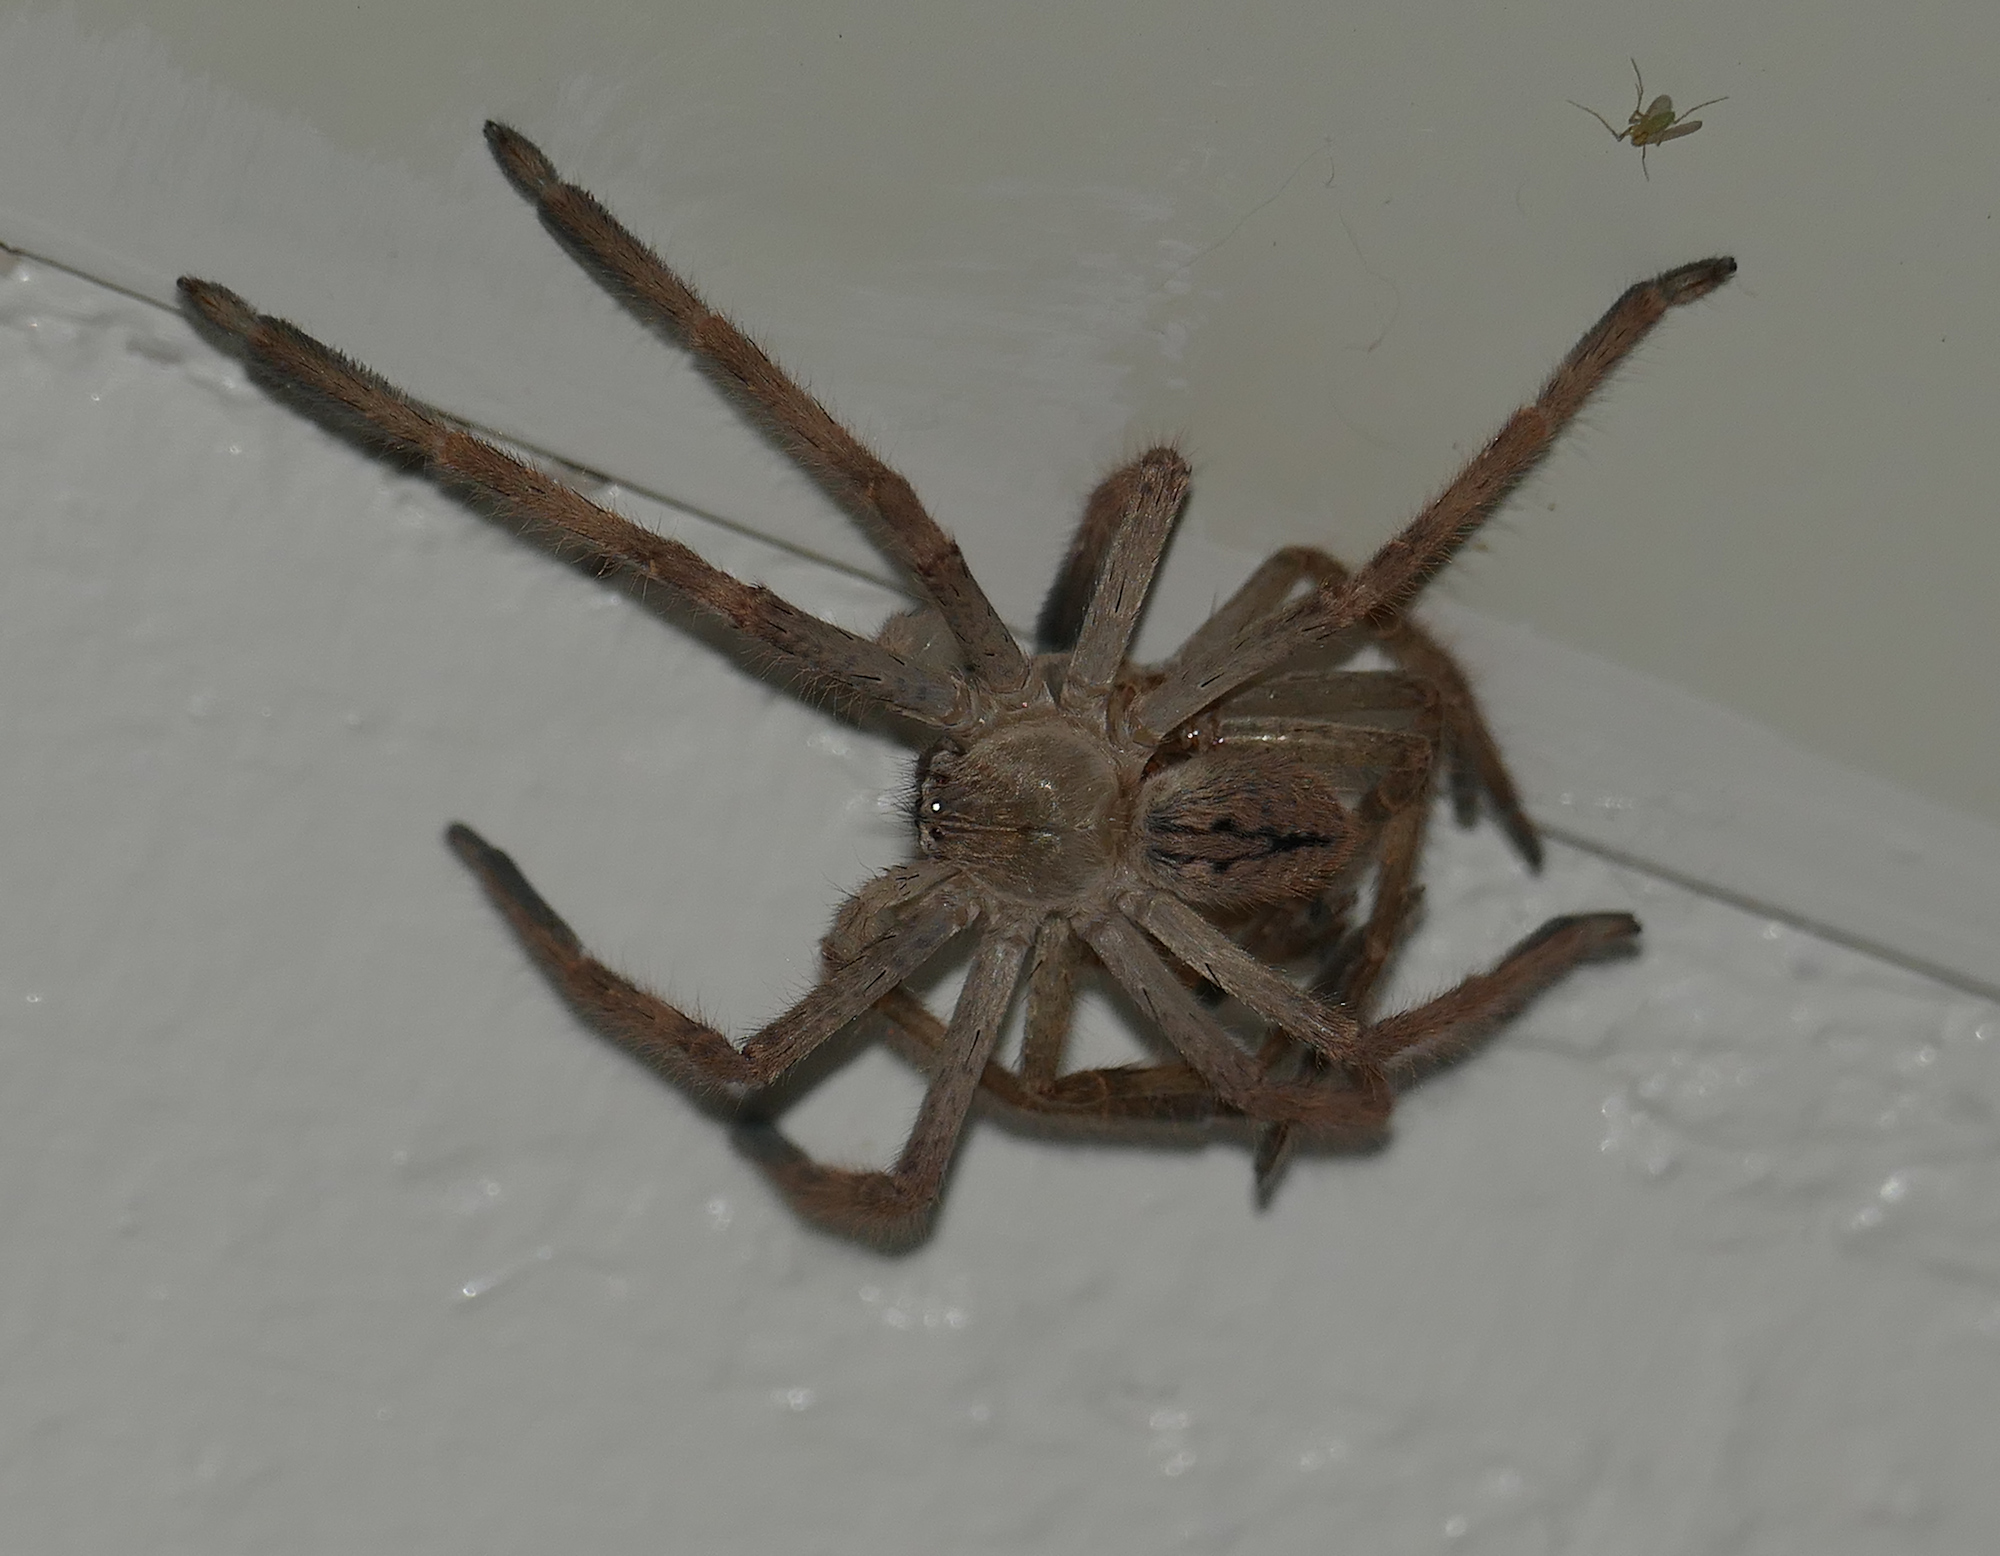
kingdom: Animalia
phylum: Arthropoda
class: Arachnida
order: Araneae
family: Sparassidae
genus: Olios
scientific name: Olios giganteus
